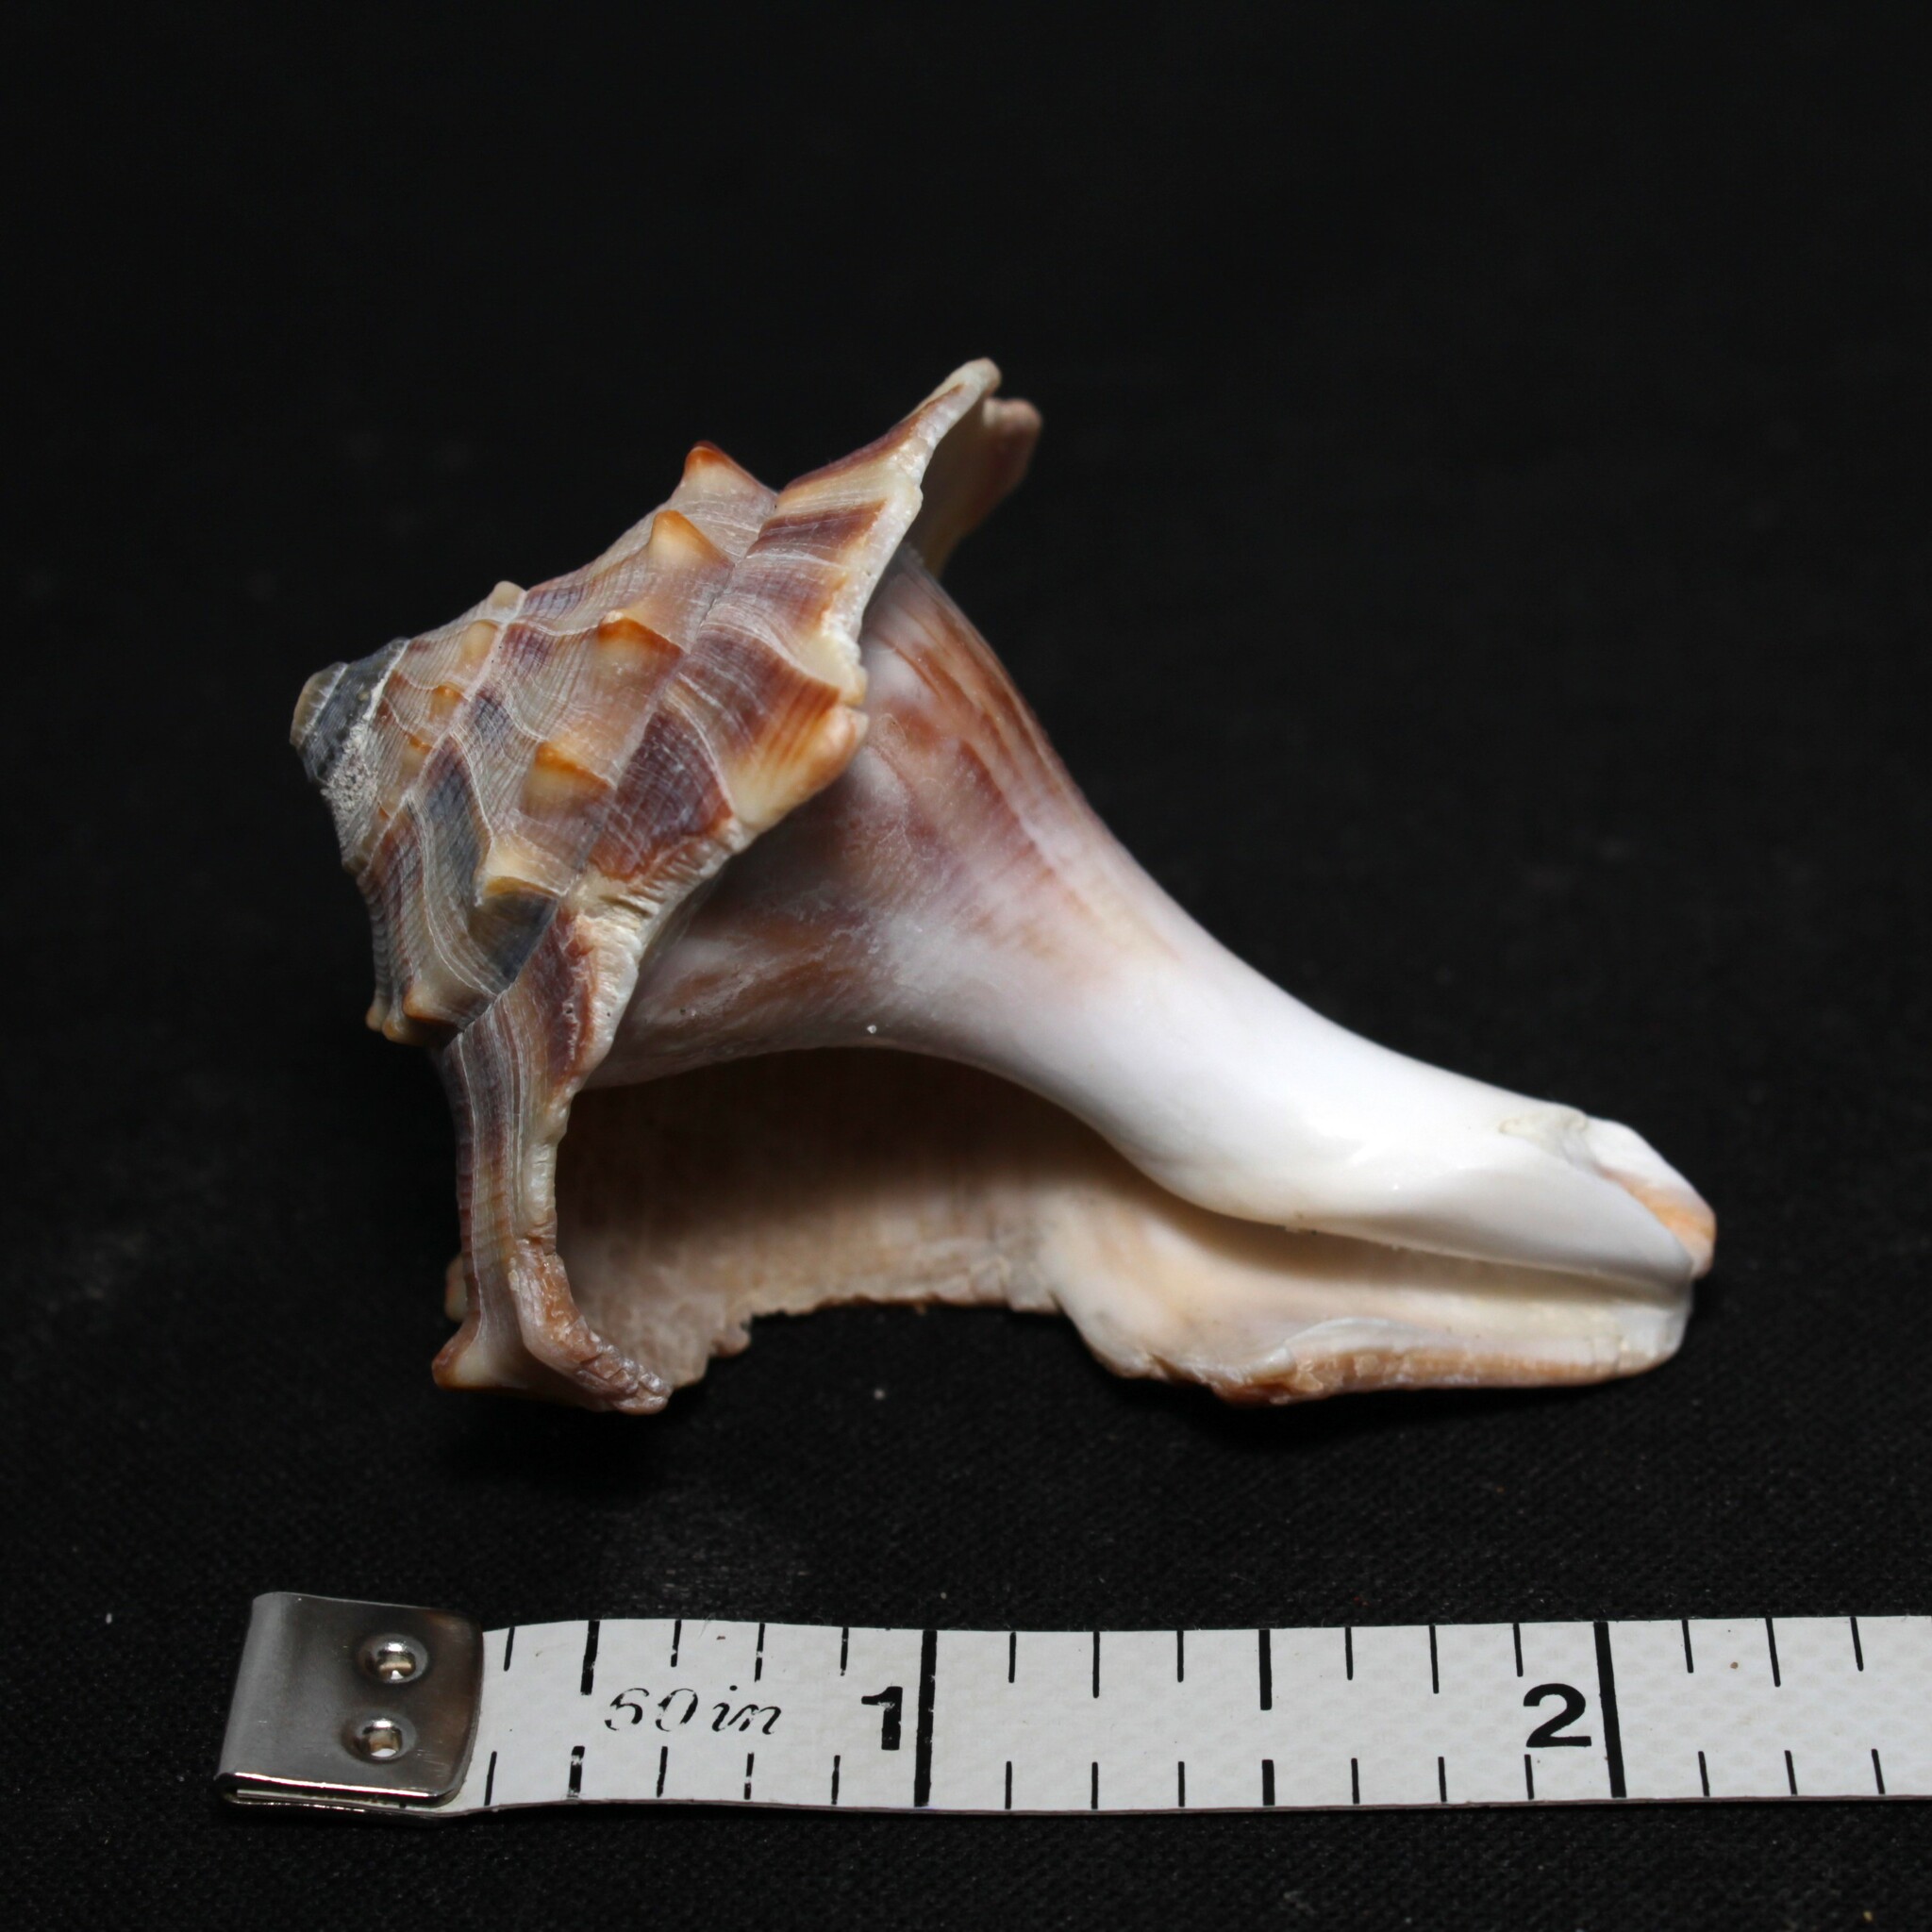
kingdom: Animalia
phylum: Mollusca
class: Gastropoda
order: Neogastropoda
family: Busyconidae
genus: Busycon
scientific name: Busycon carica
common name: Knobbed whelk
